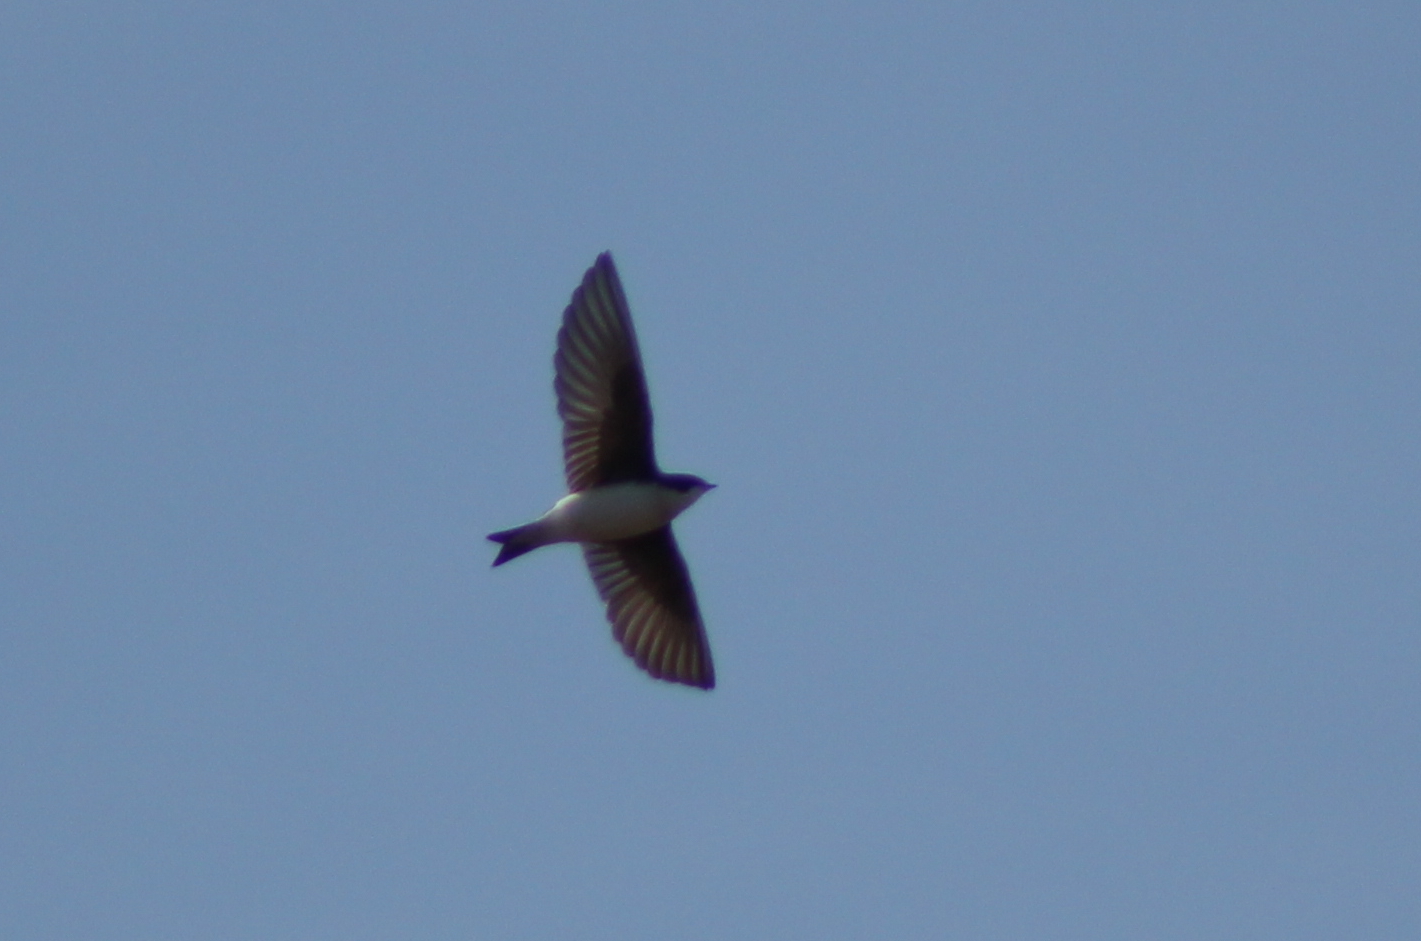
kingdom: Animalia
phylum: Chordata
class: Aves
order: Passeriformes
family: Hirundinidae
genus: Tachycineta
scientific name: Tachycineta bicolor
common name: Tree swallow
